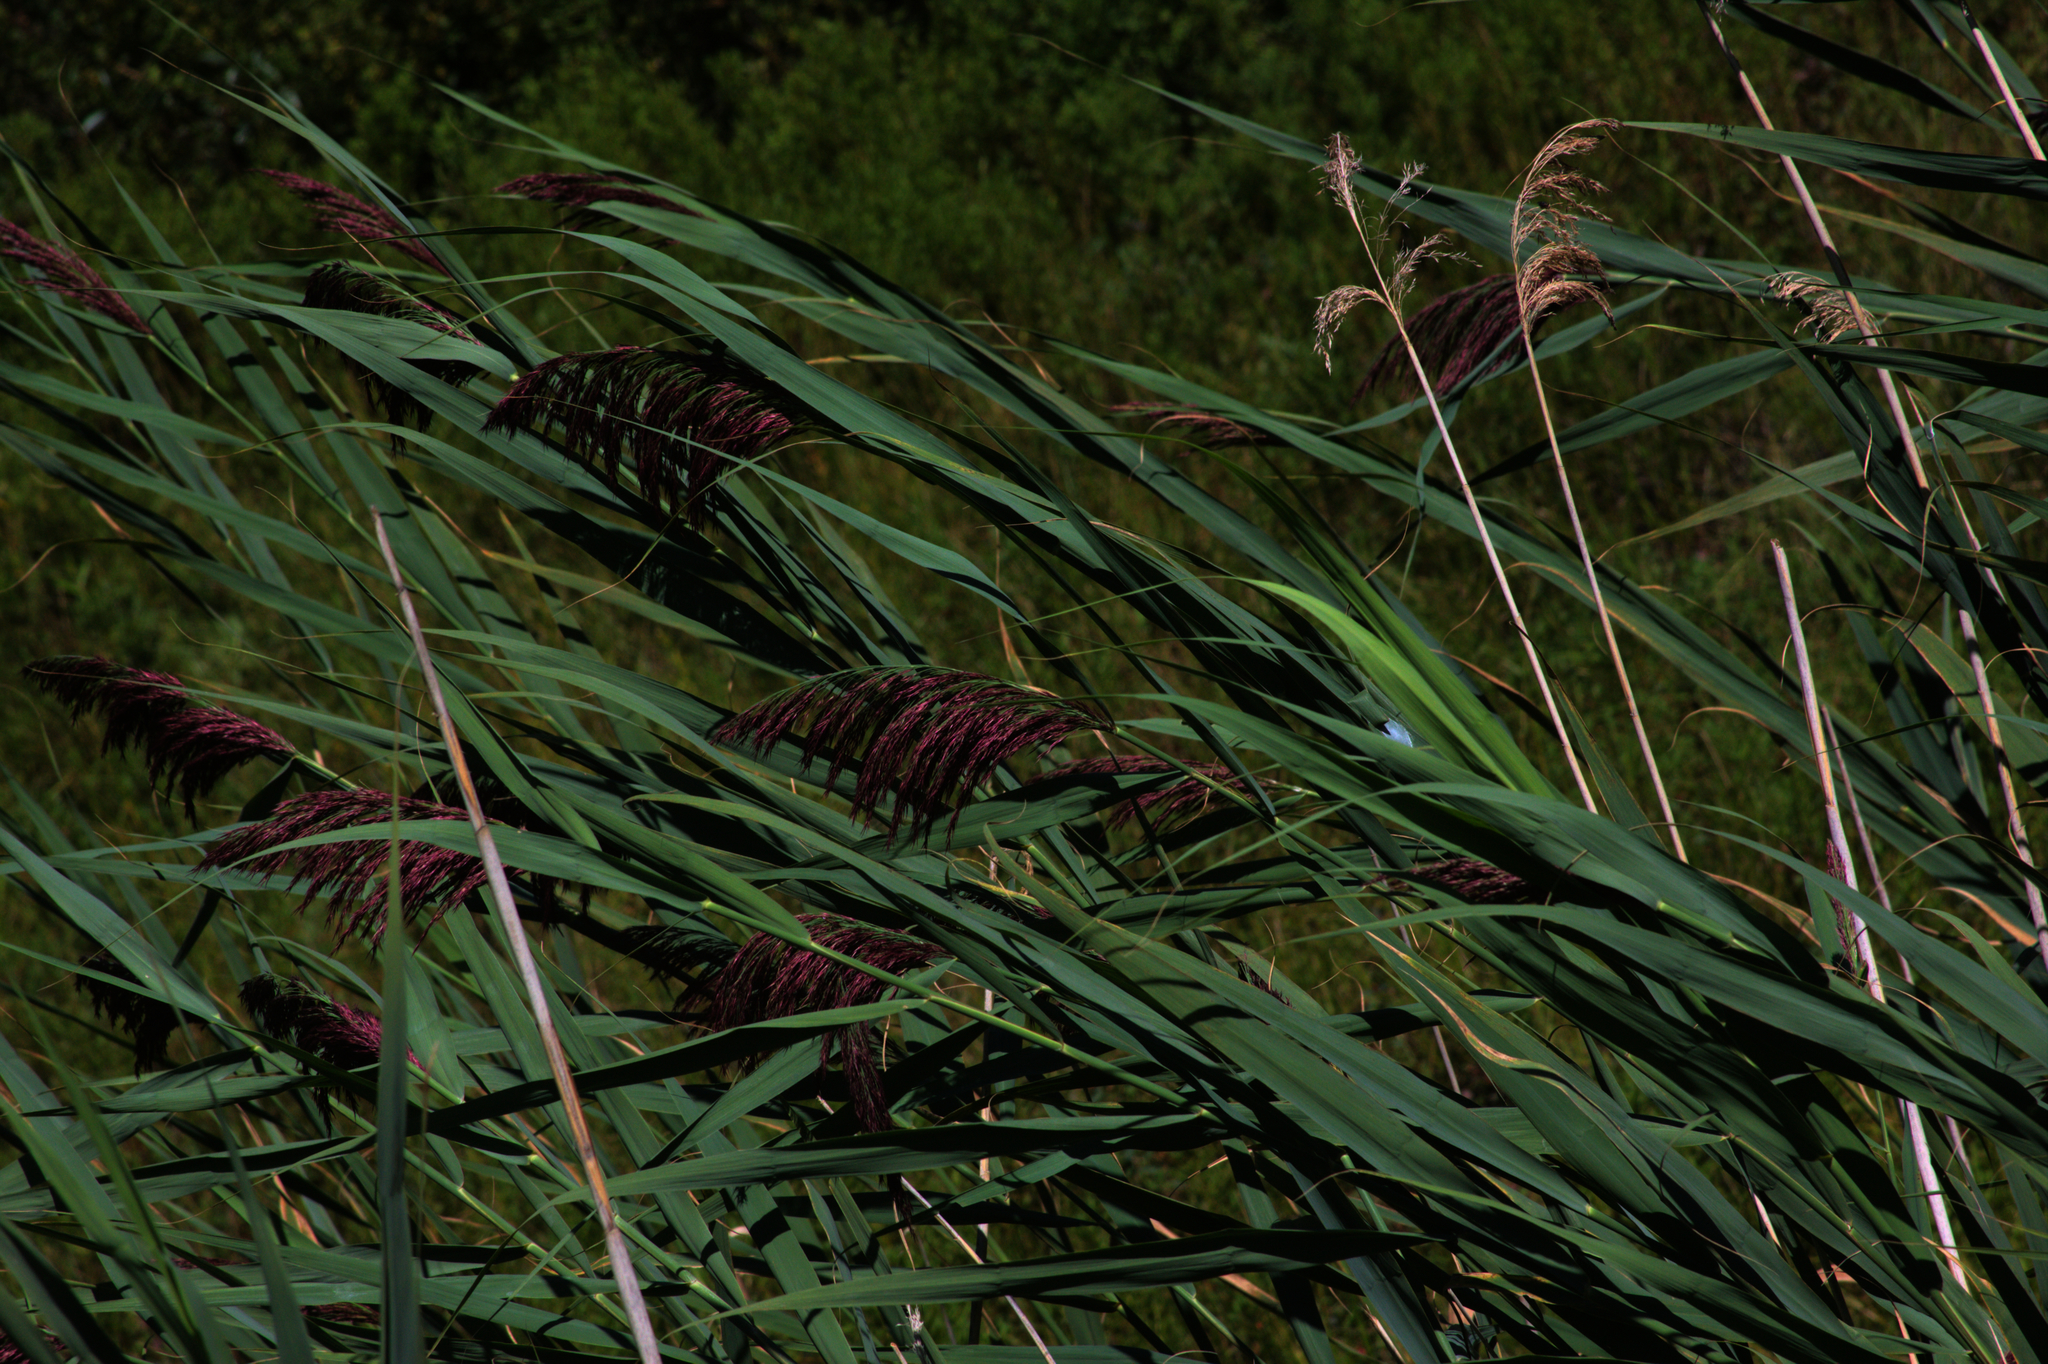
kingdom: Plantae
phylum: Tracheophyta
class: Liliopsida
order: Poales
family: Poaceae
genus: Phragmites
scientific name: Phragmites australis
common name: Common reed
